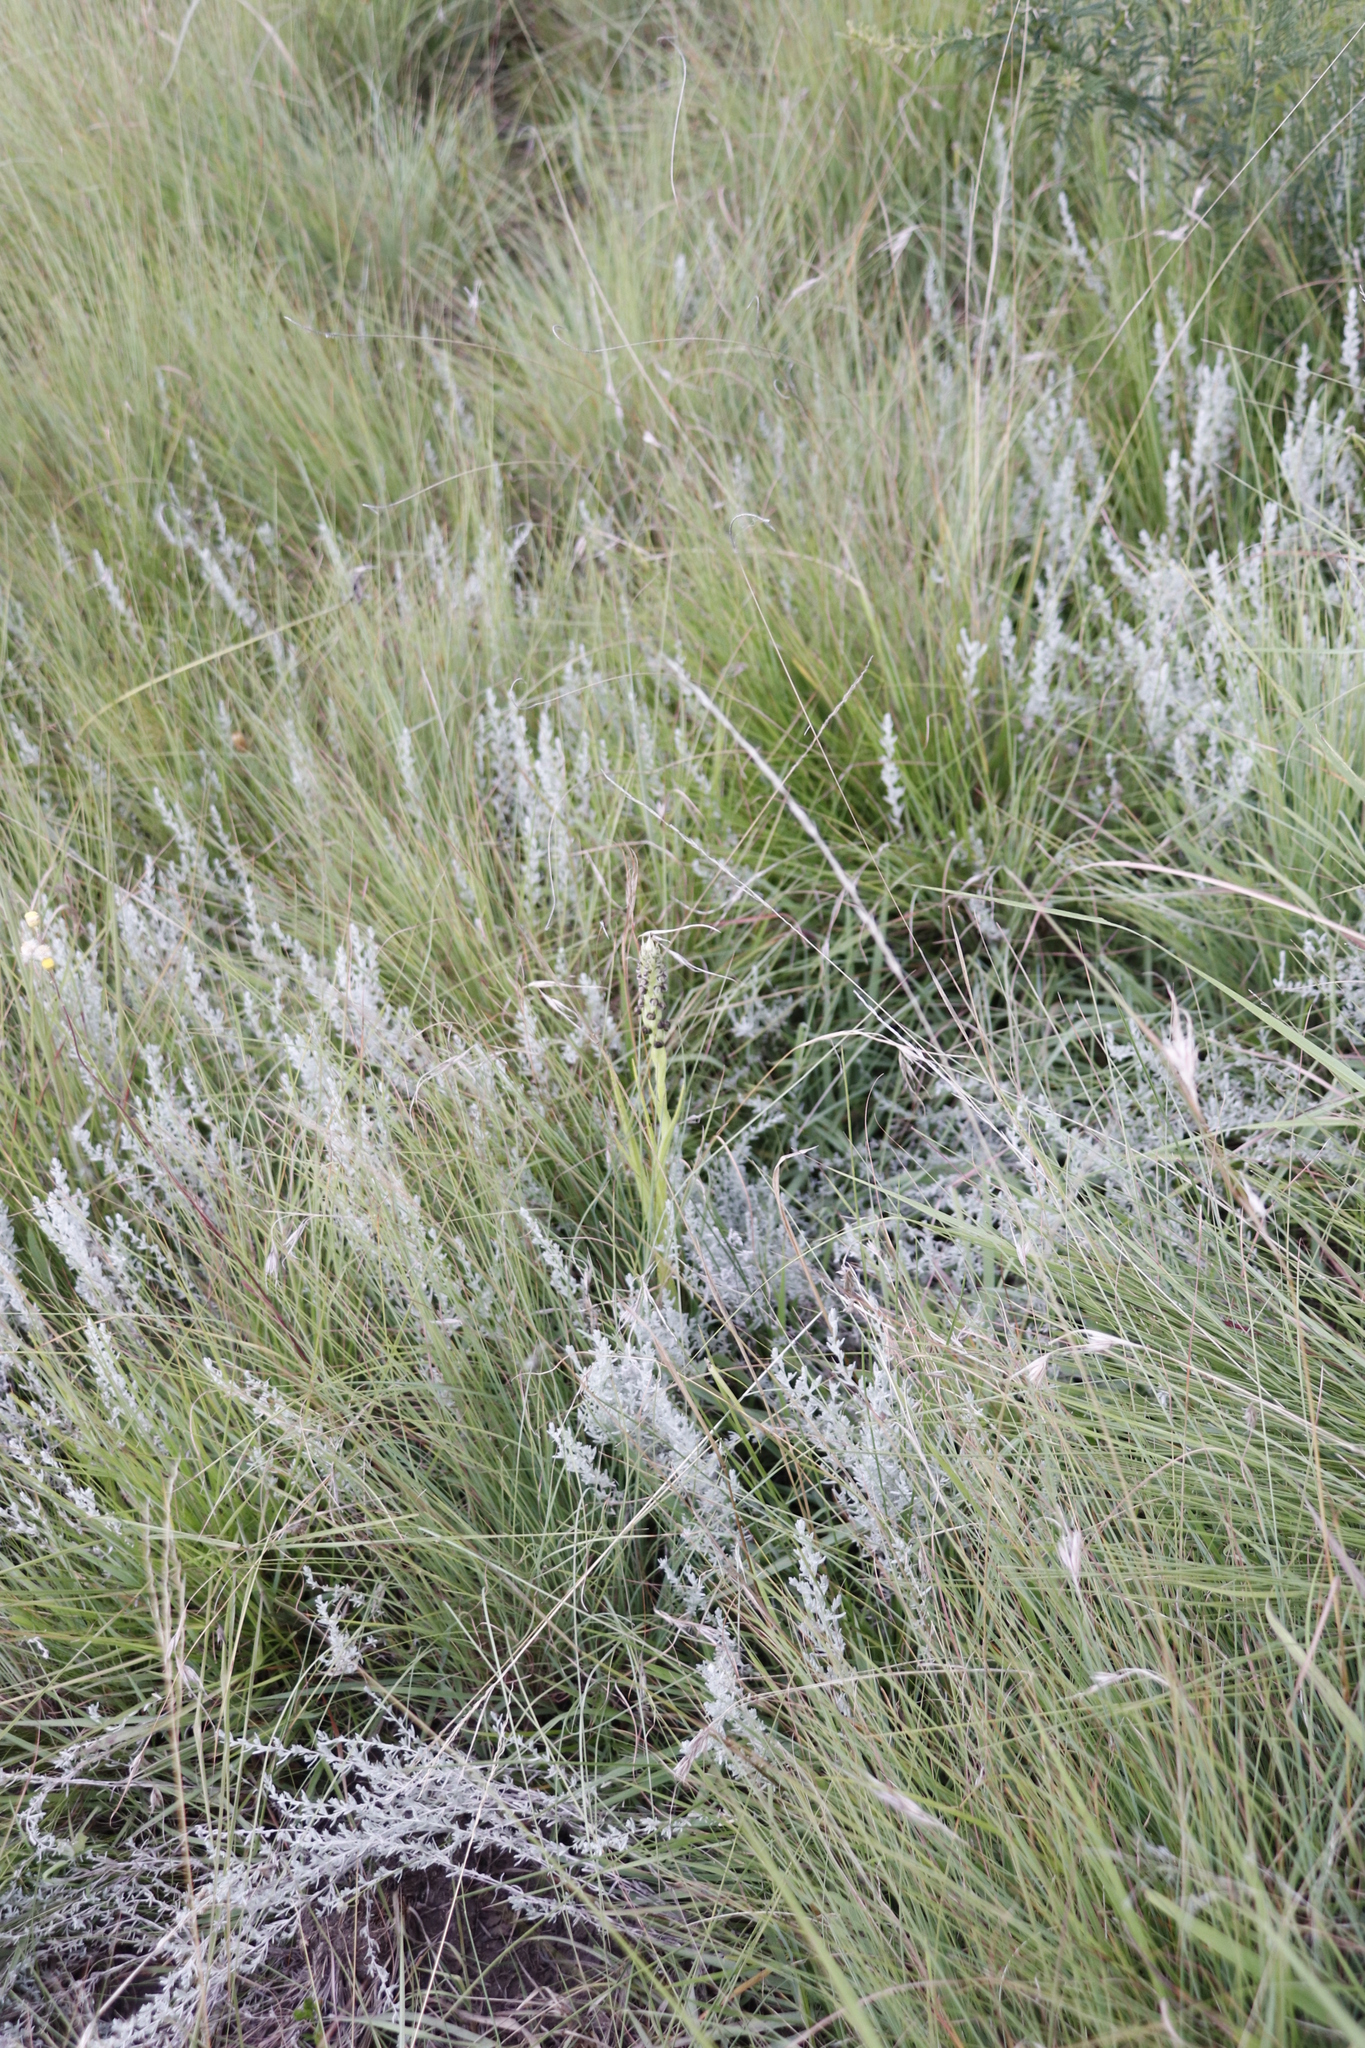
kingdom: Plantae
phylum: Tracheophyta
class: Liliopsida
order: Asparagales
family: Orchidaceae
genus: Corycium
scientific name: Corycium nigrescens
